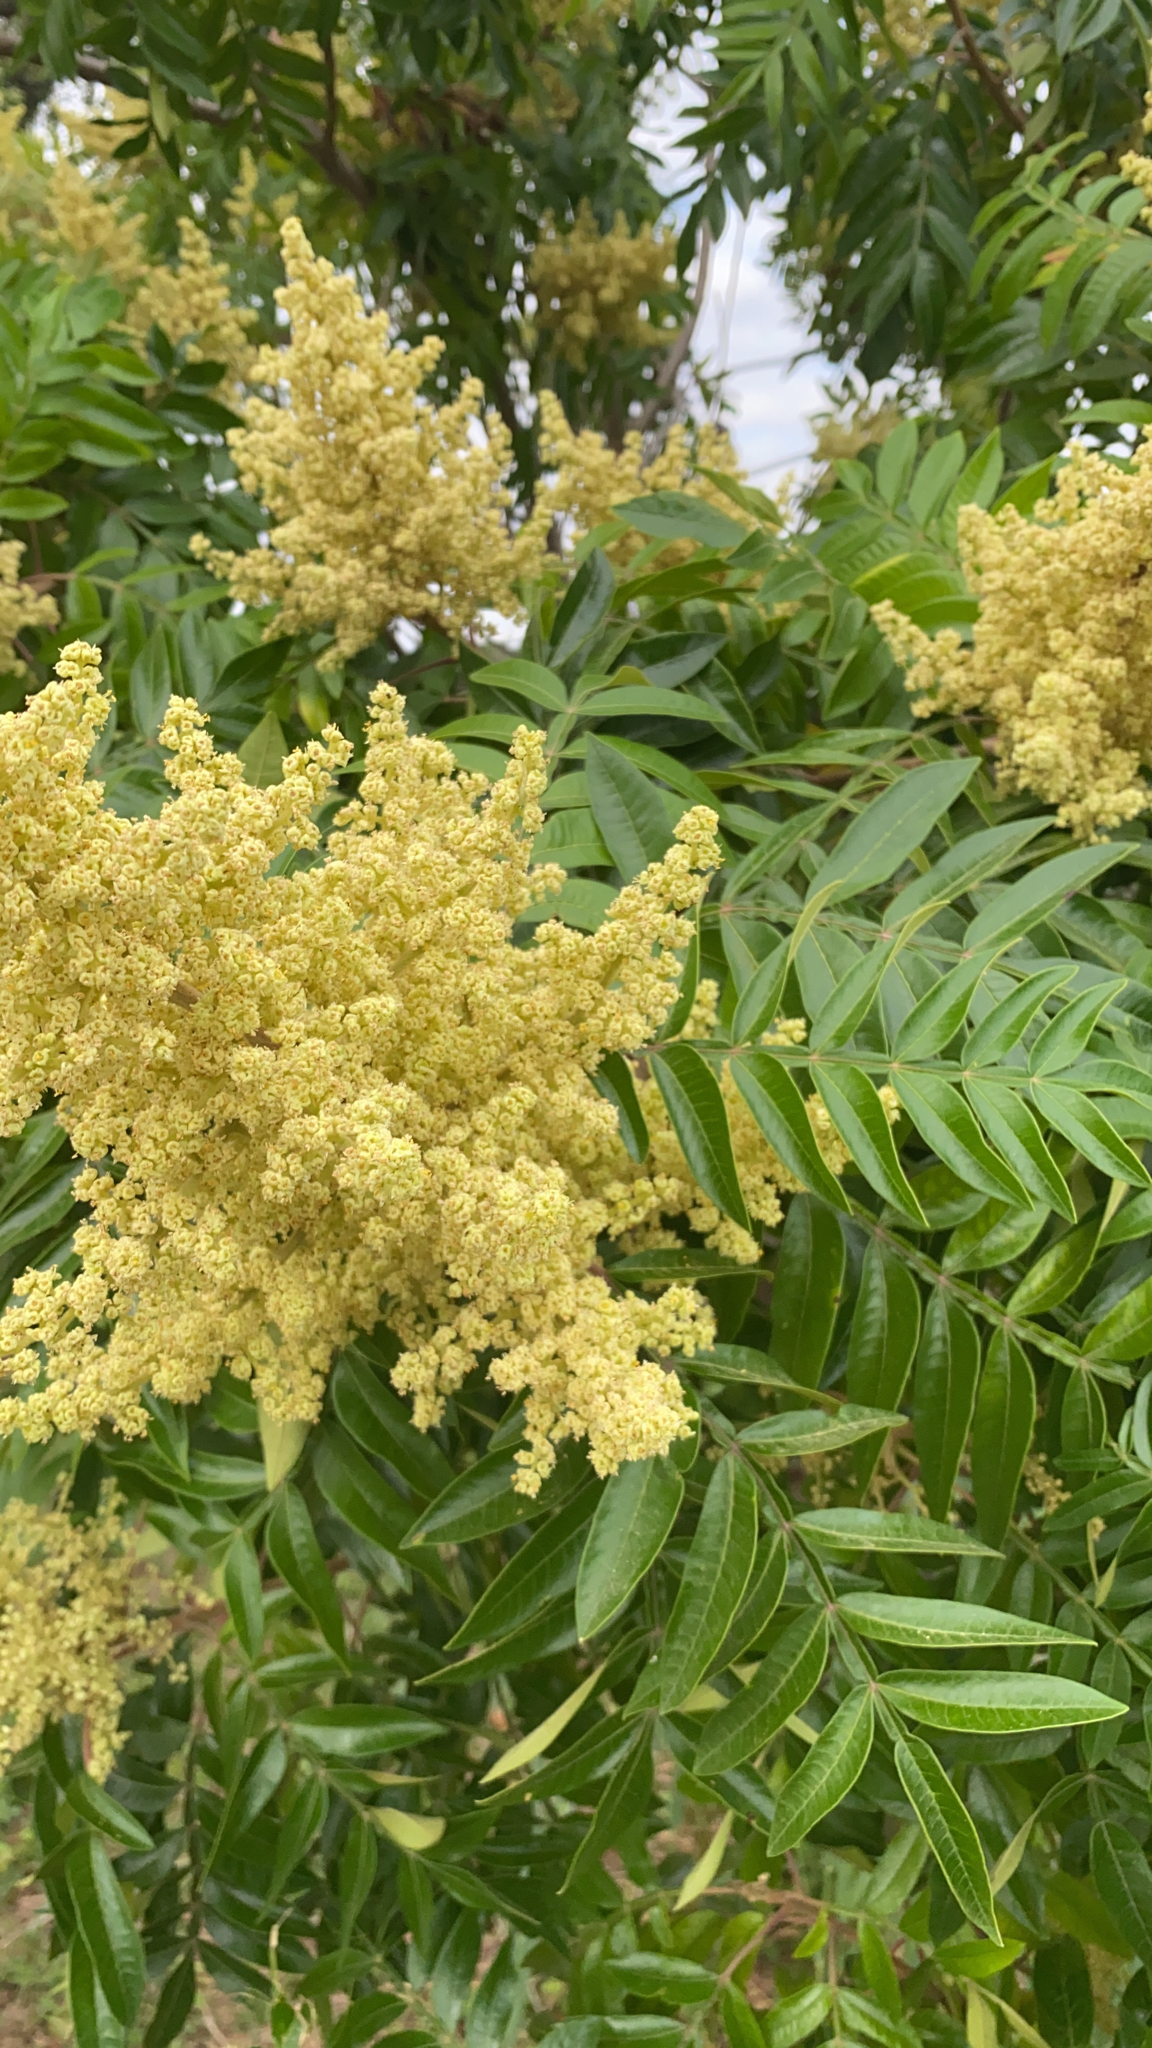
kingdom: Plantae
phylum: Tracheophyta
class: Magnoliopsida
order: Sapindales
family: Anacardiaceae
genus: Rhus
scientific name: Rhus copallina
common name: Shining sumac
